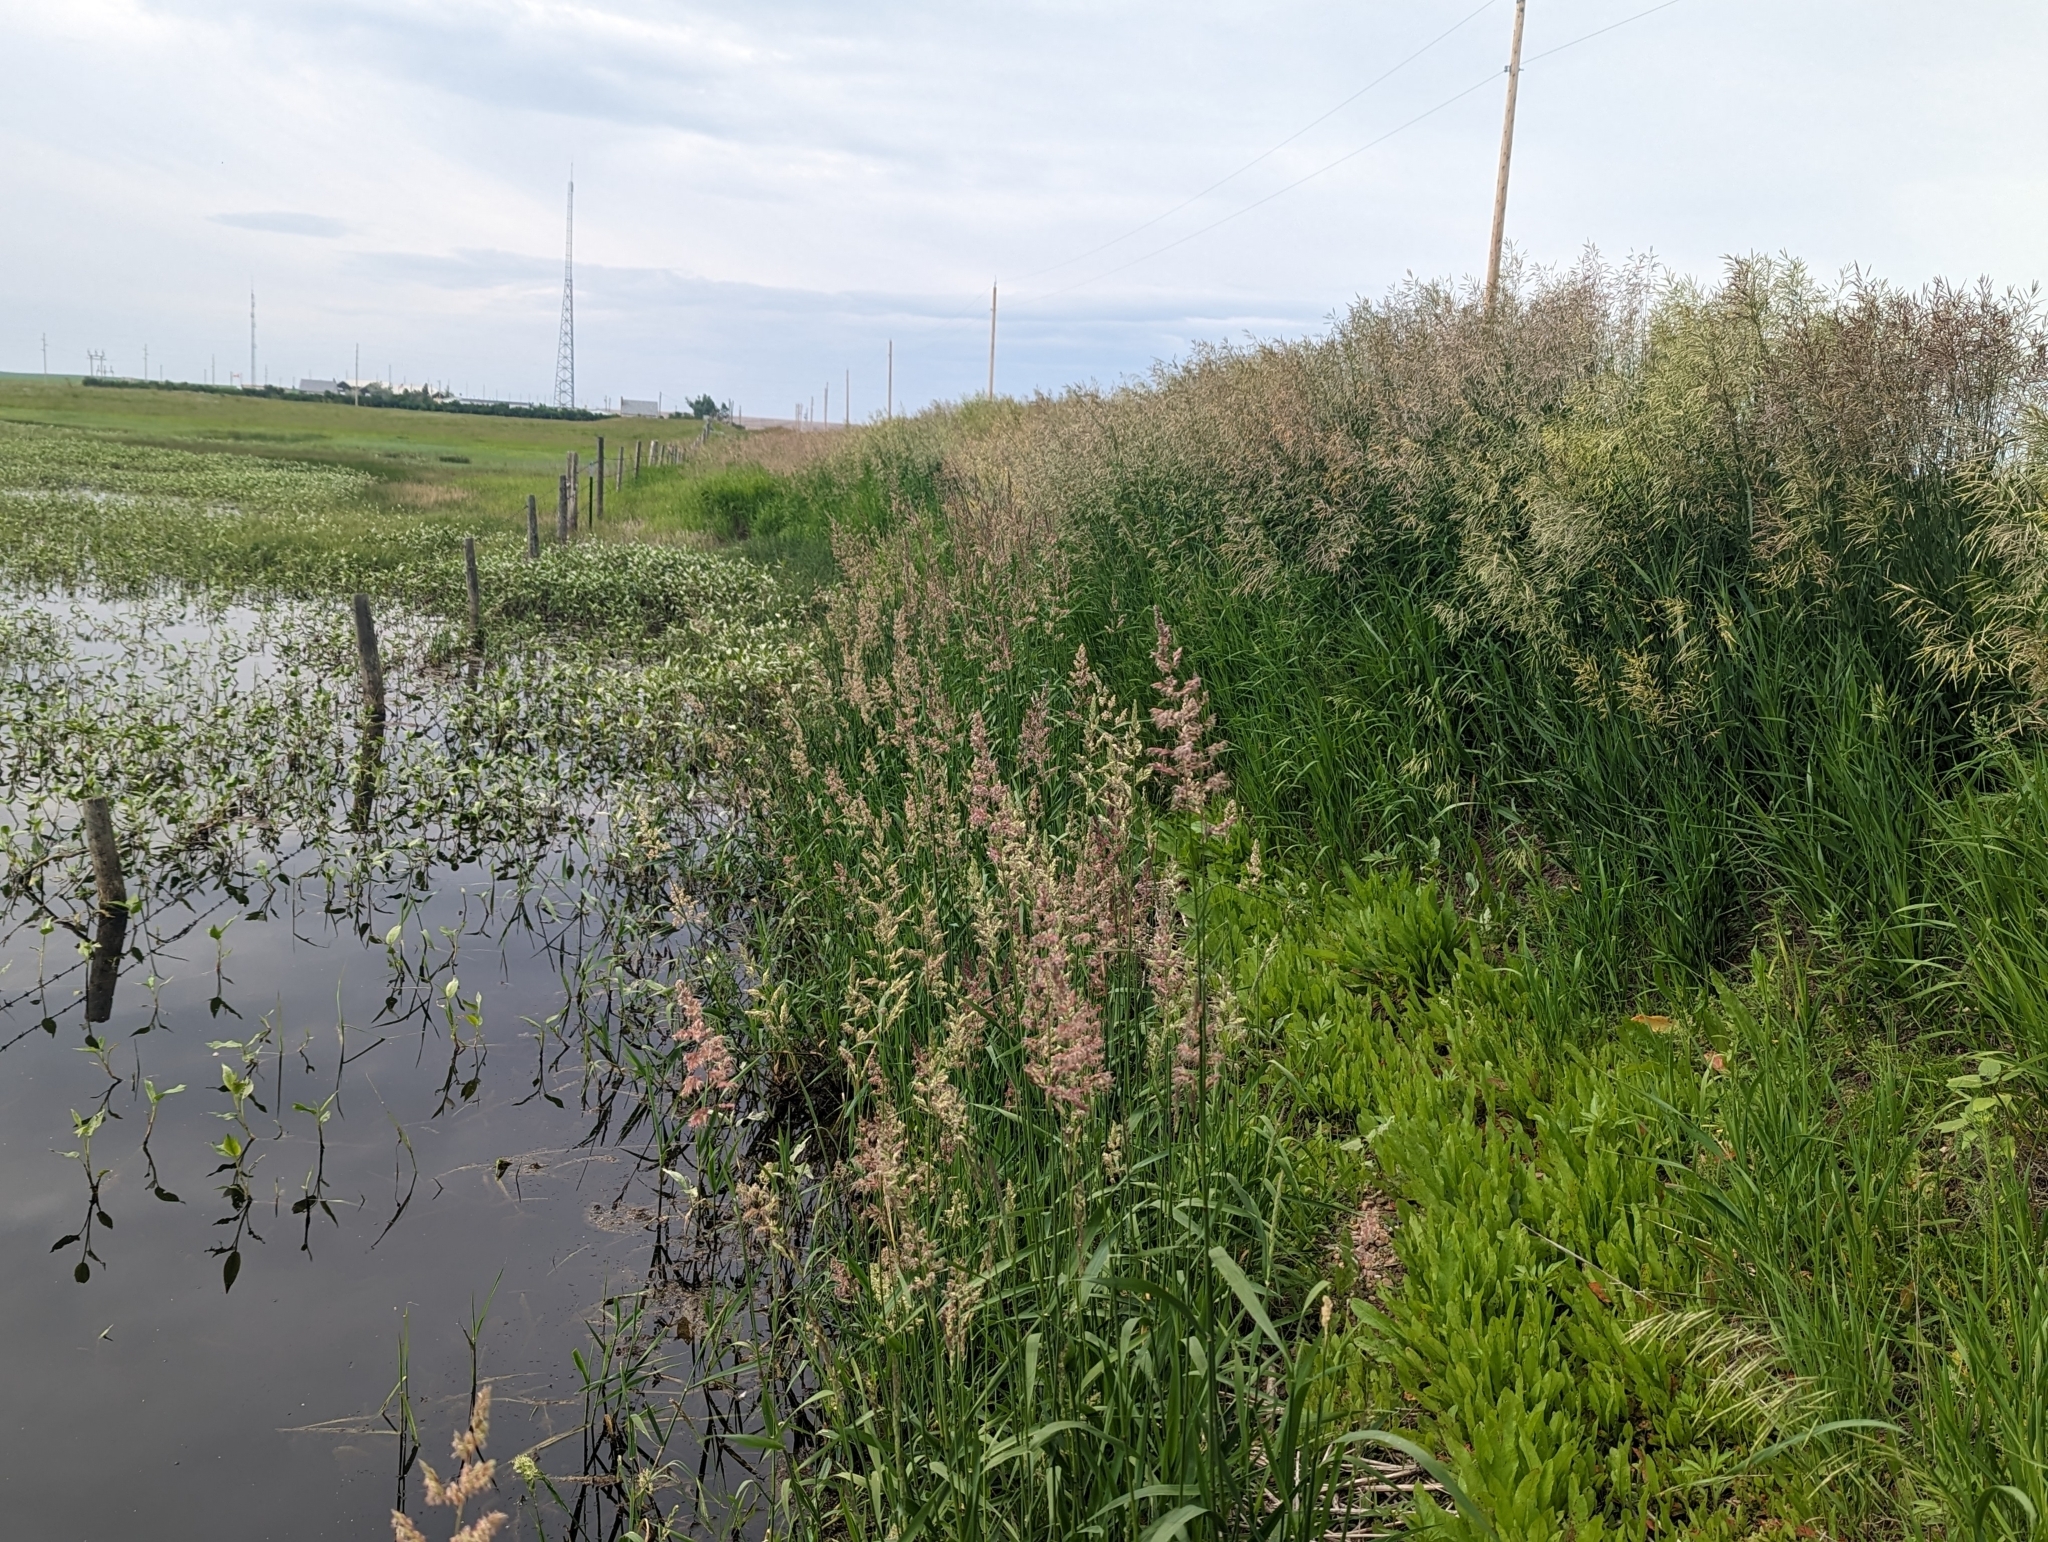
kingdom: Plantae
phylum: Tracheophyta
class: Liliopsida
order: Poales
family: Poaceae
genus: Phalaris
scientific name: Phalaris arundinacea
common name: Reed canary-grass
